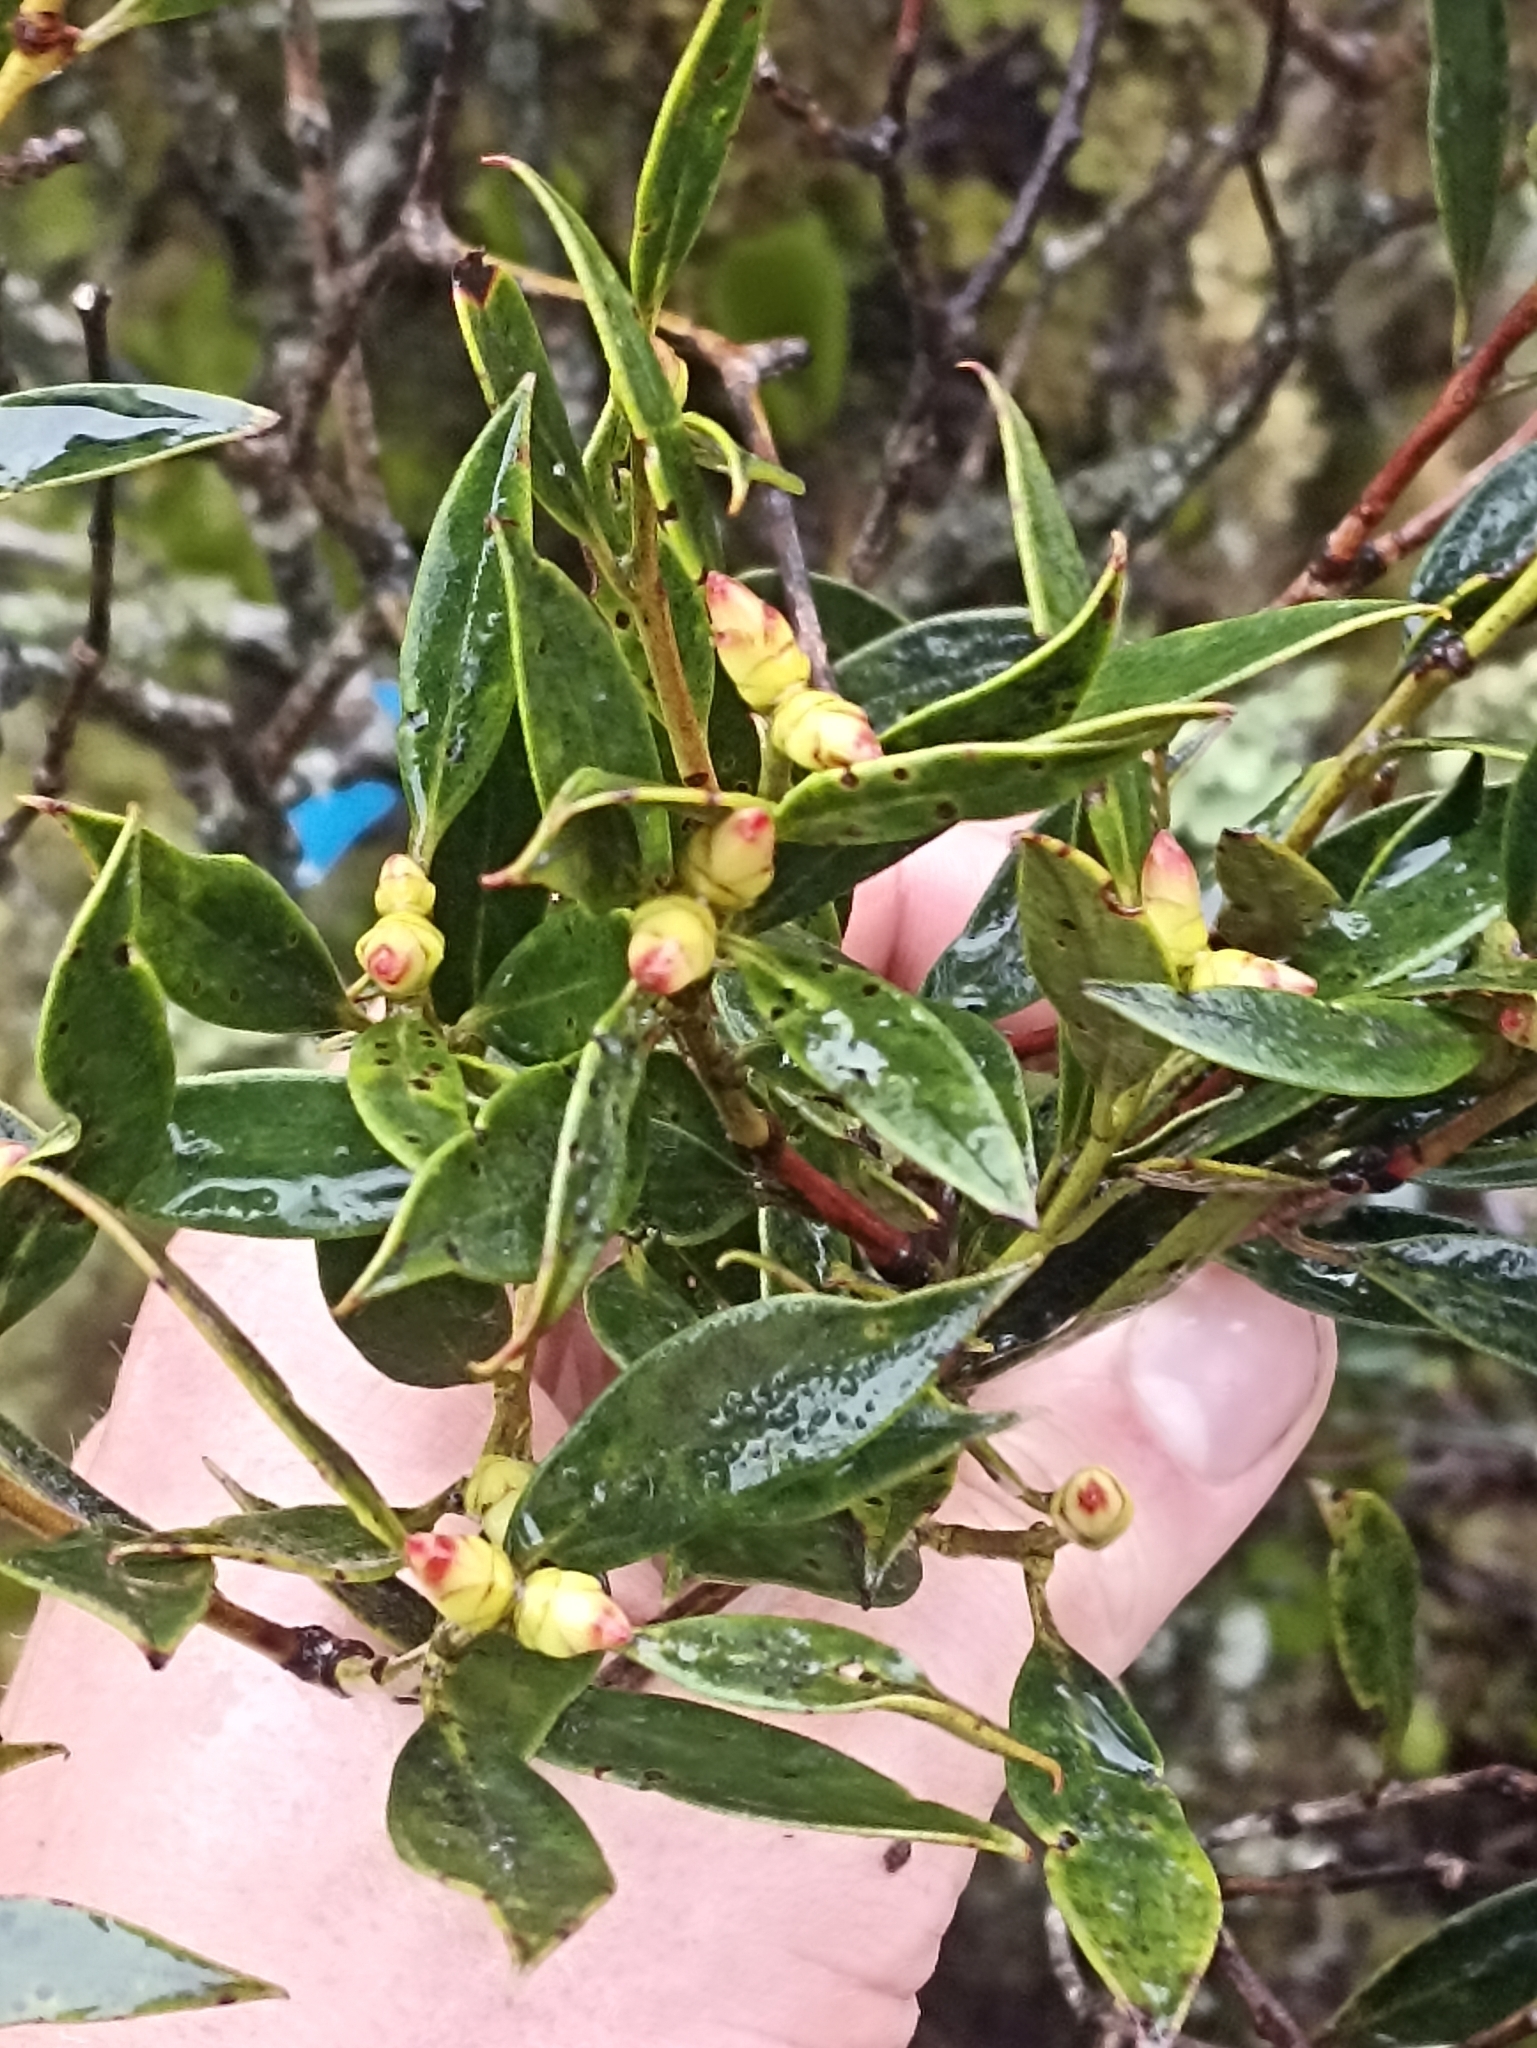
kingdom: Plantae
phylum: Tracheophyta
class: Magnoliopsida
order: Myrtales
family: Myrtaceae
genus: Metrosideros
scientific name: Metrosideros umbellata
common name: Southern rata
